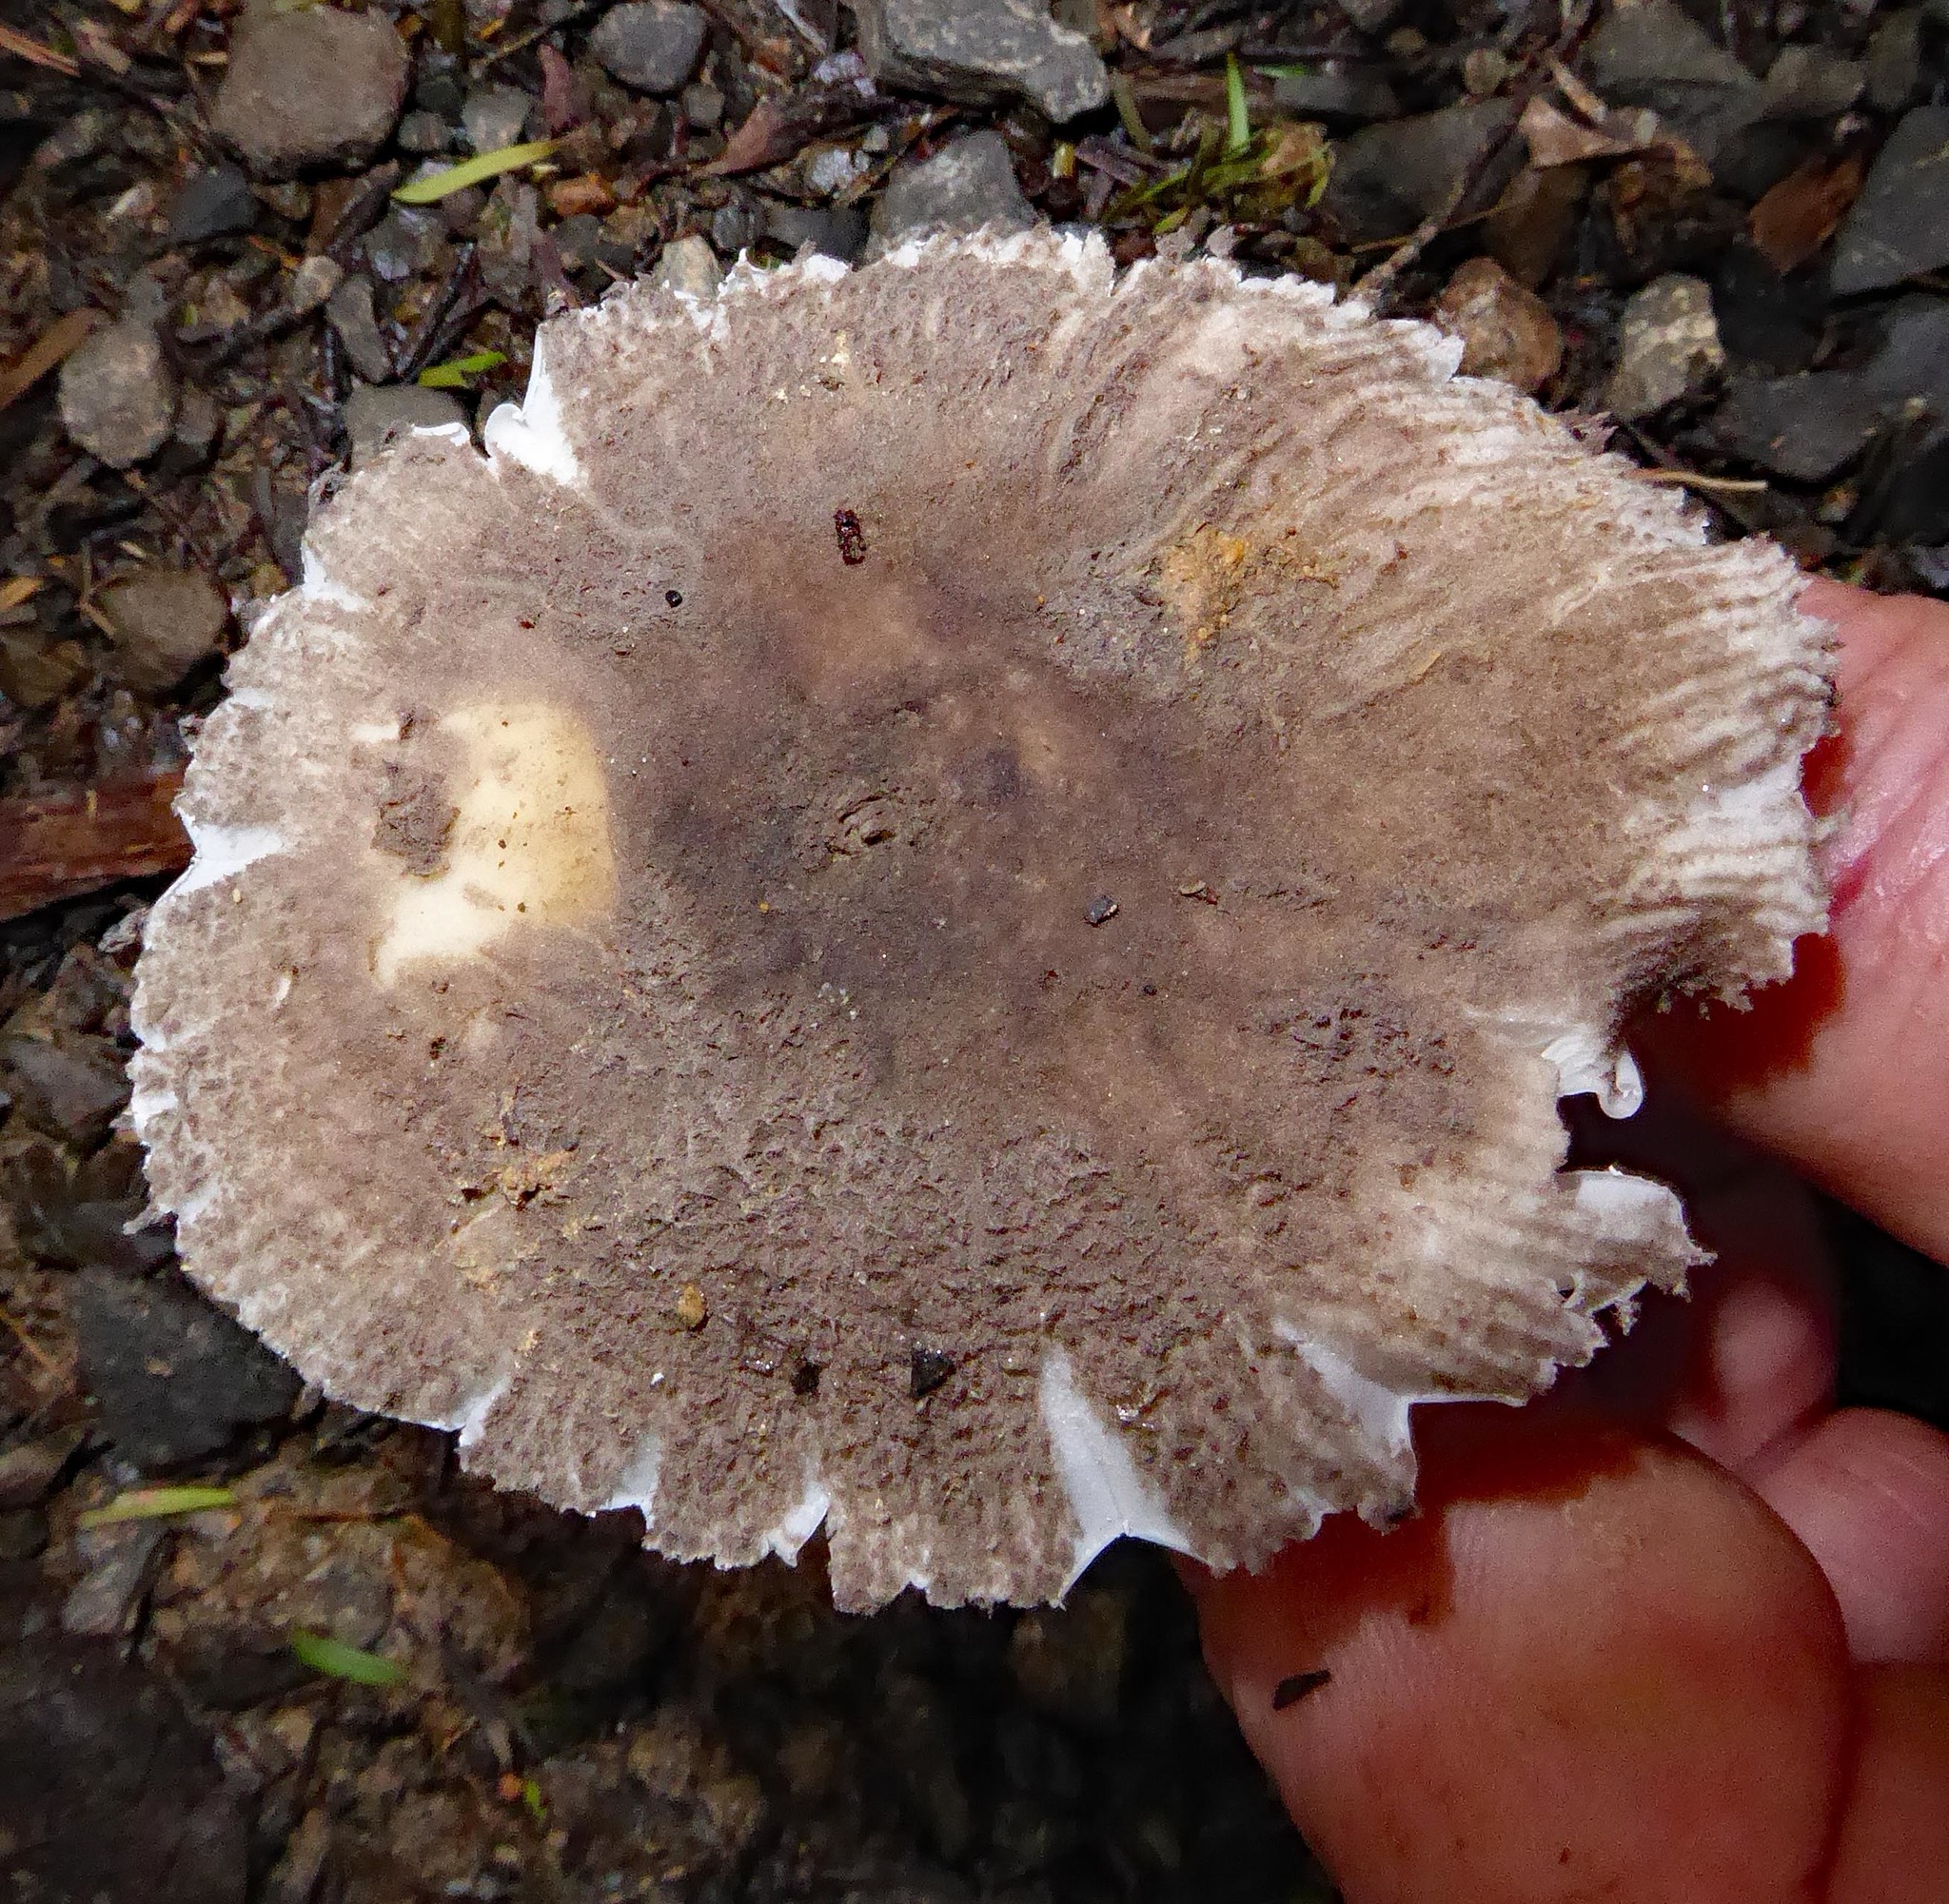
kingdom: Fungi
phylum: Basidiomycota
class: Agaricomycetes
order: Agaricales
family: Amanitaceae
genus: Amanita
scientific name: Amanita nehuta
